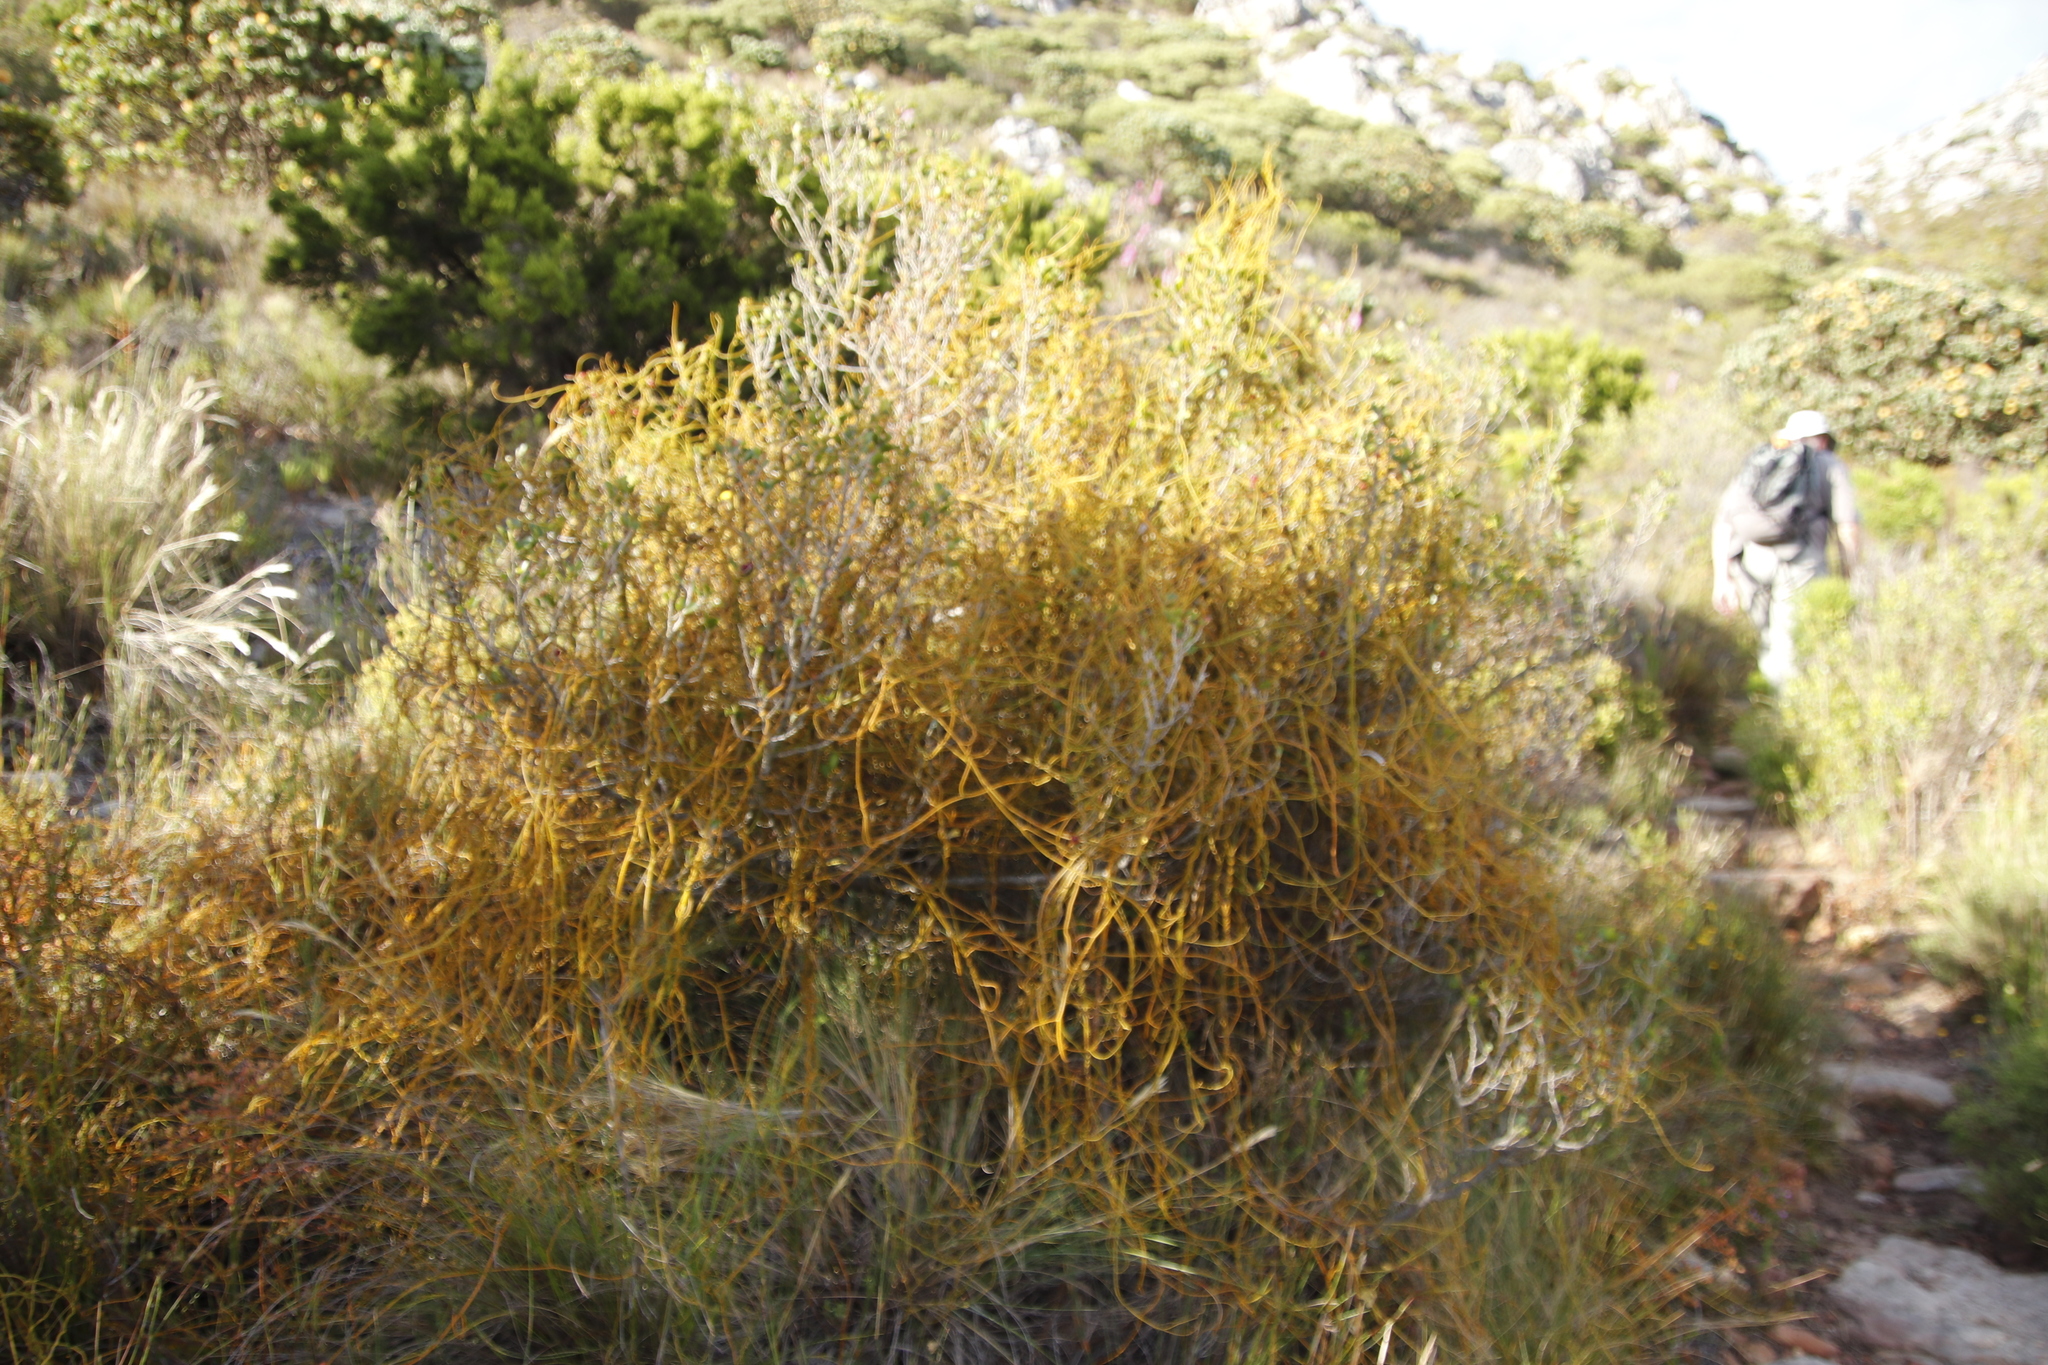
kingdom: Plantae
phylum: Tracheophyta
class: Magnoliopsida
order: Laurales
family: Lauraceae
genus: Cassytha
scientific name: Cassytha ciliolata
